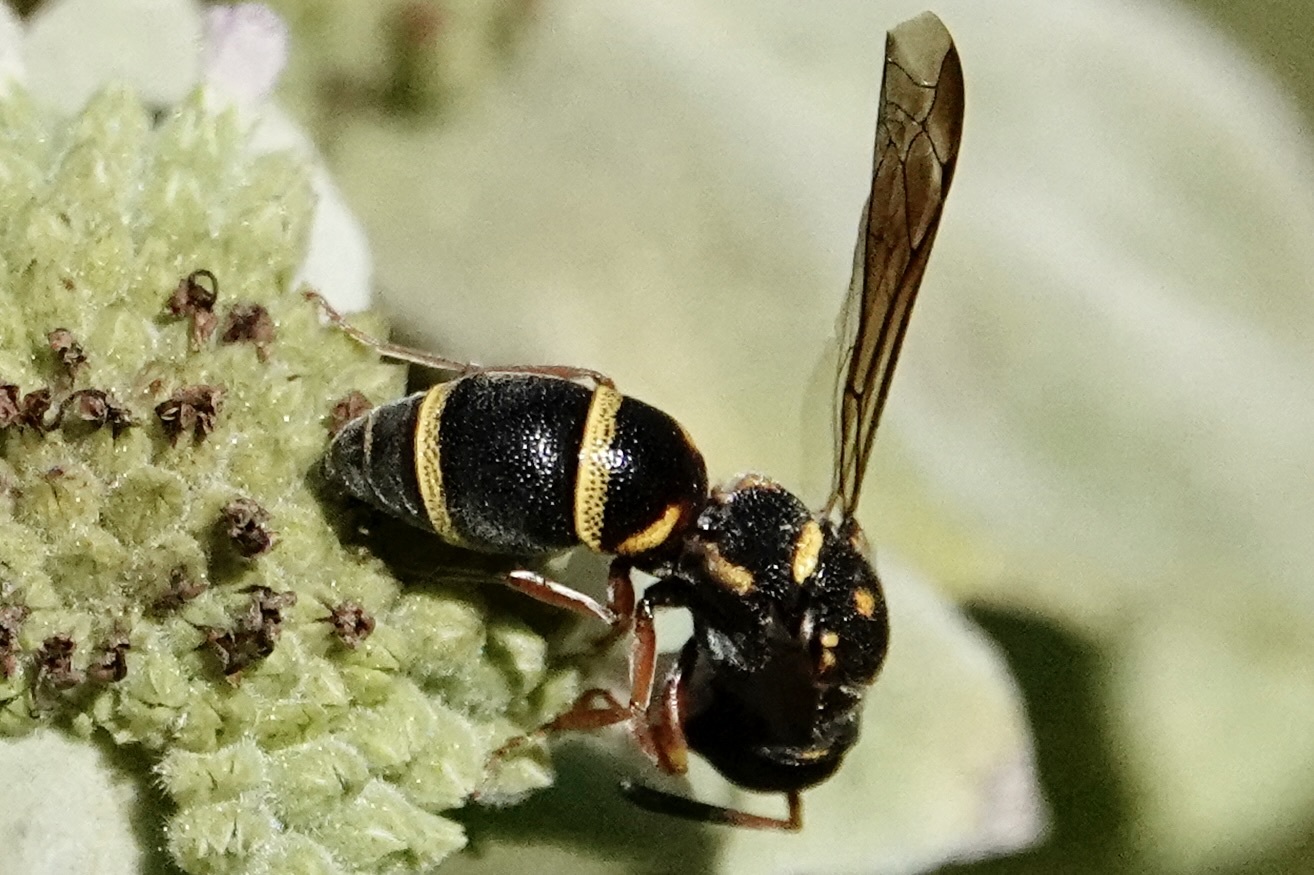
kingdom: Animalia
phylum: Arthropoda
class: Insecta
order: Hymenoptera
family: Eumenidae
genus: Parancistrocerus
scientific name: Parancistrocerus fulvipes
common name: Potter wasp
